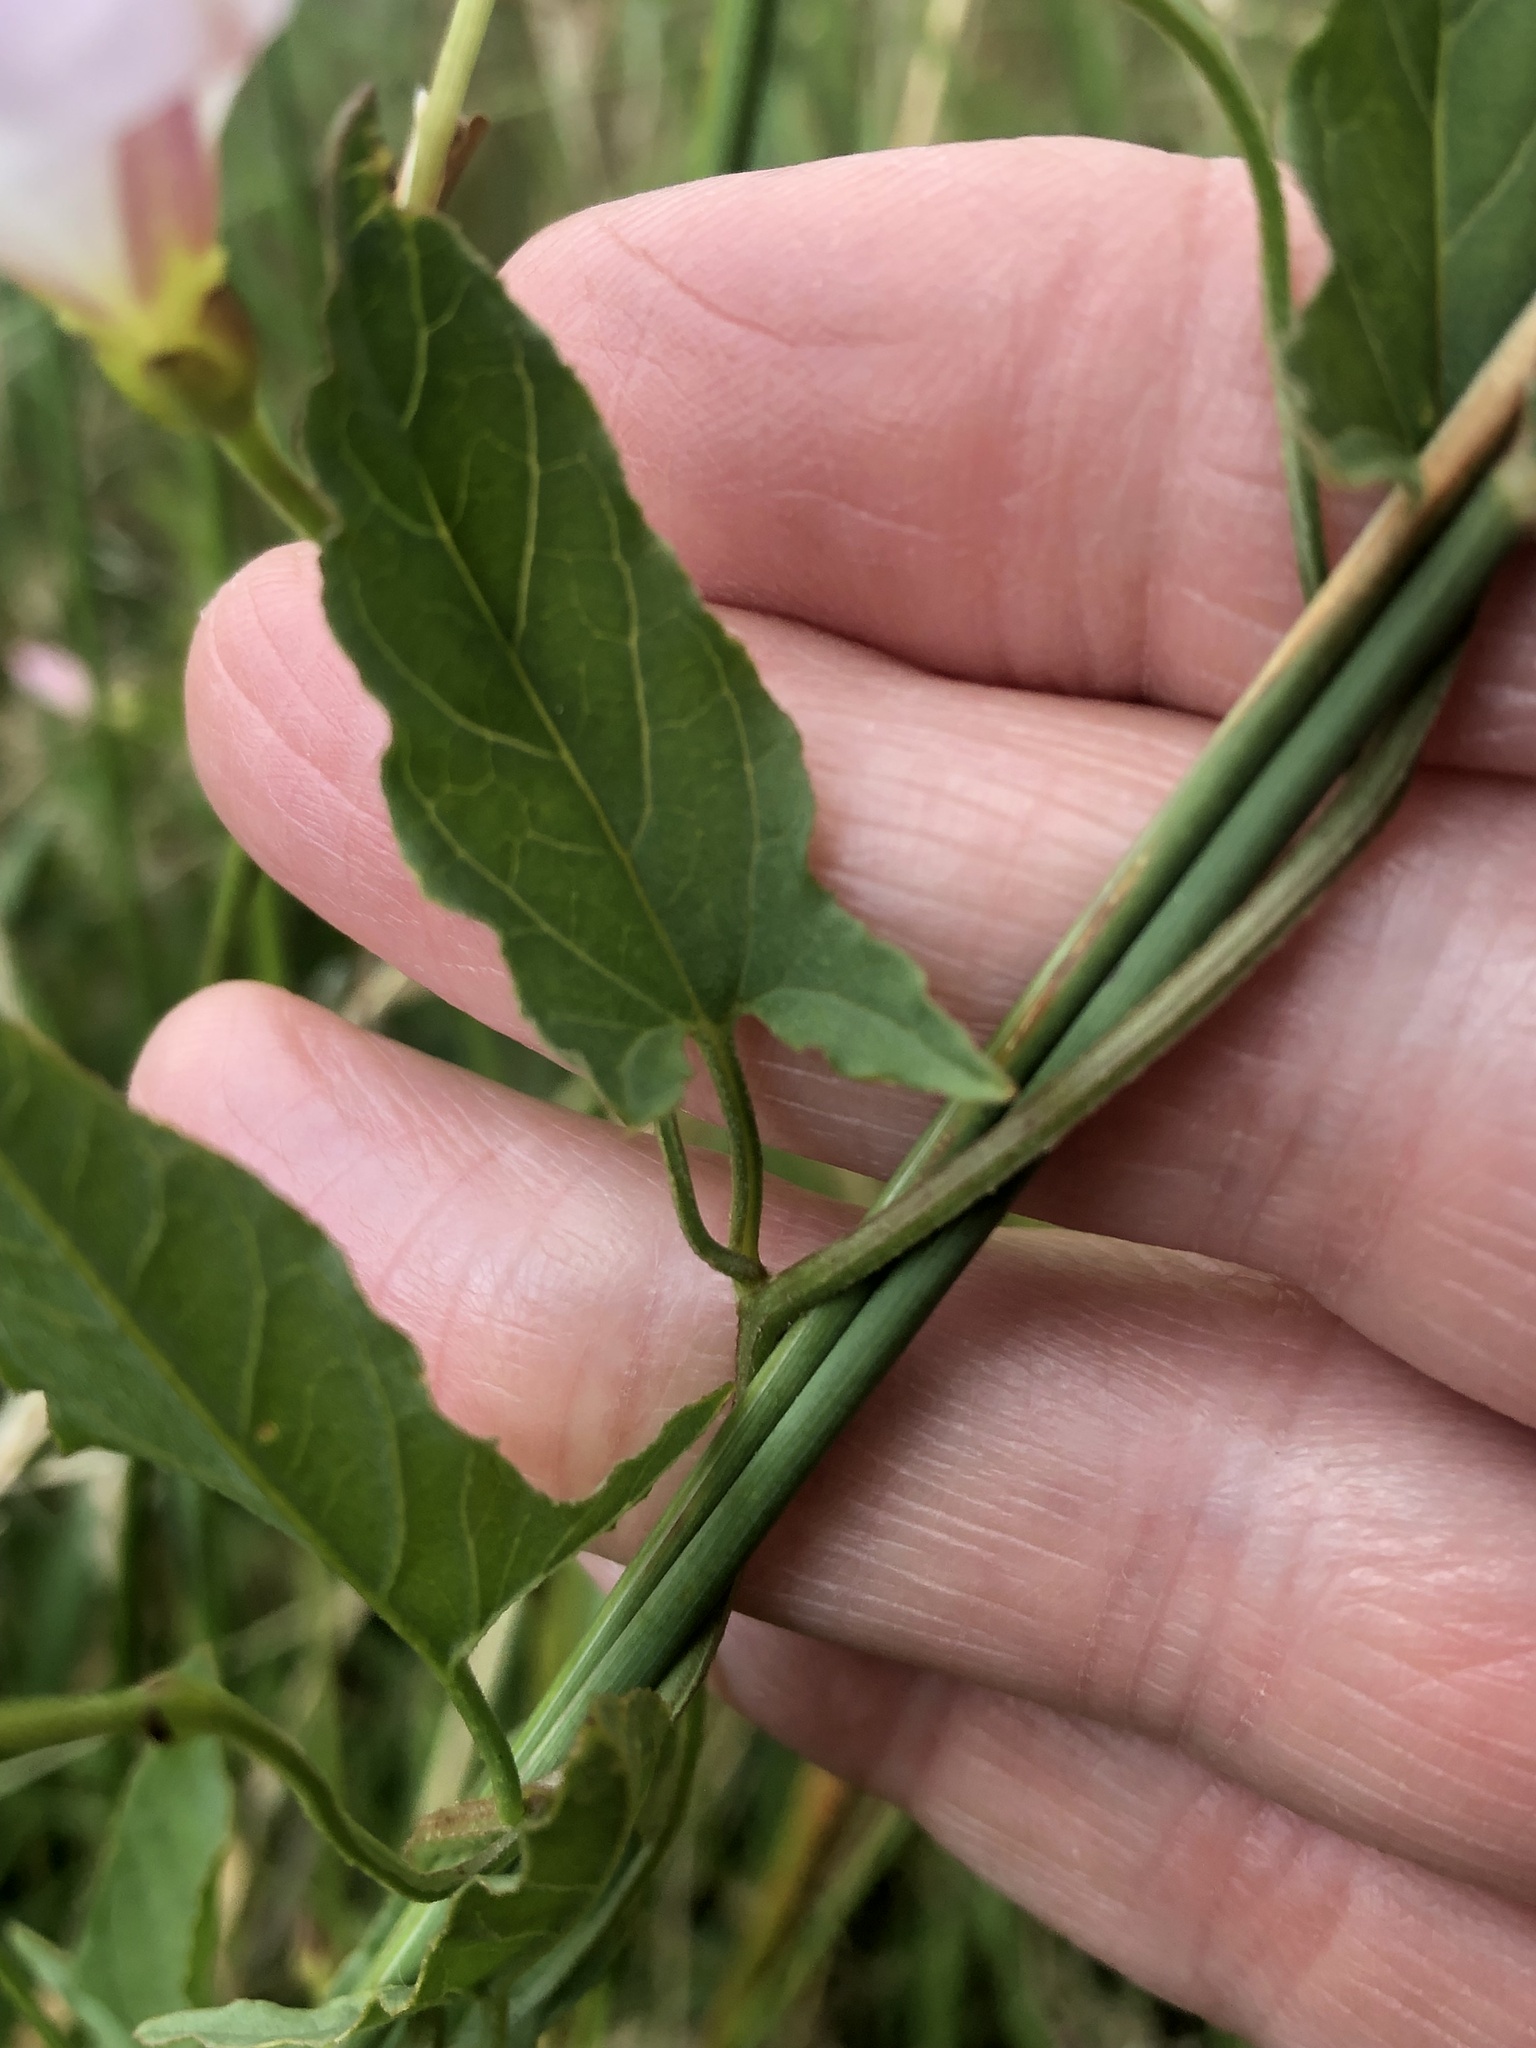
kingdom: Plantae
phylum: Tracheophyta
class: Magnoliopsida
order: Solanales
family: Convolvulaceae
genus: Convolvulus
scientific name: Convolvulus arvensis
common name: Field bindweed
